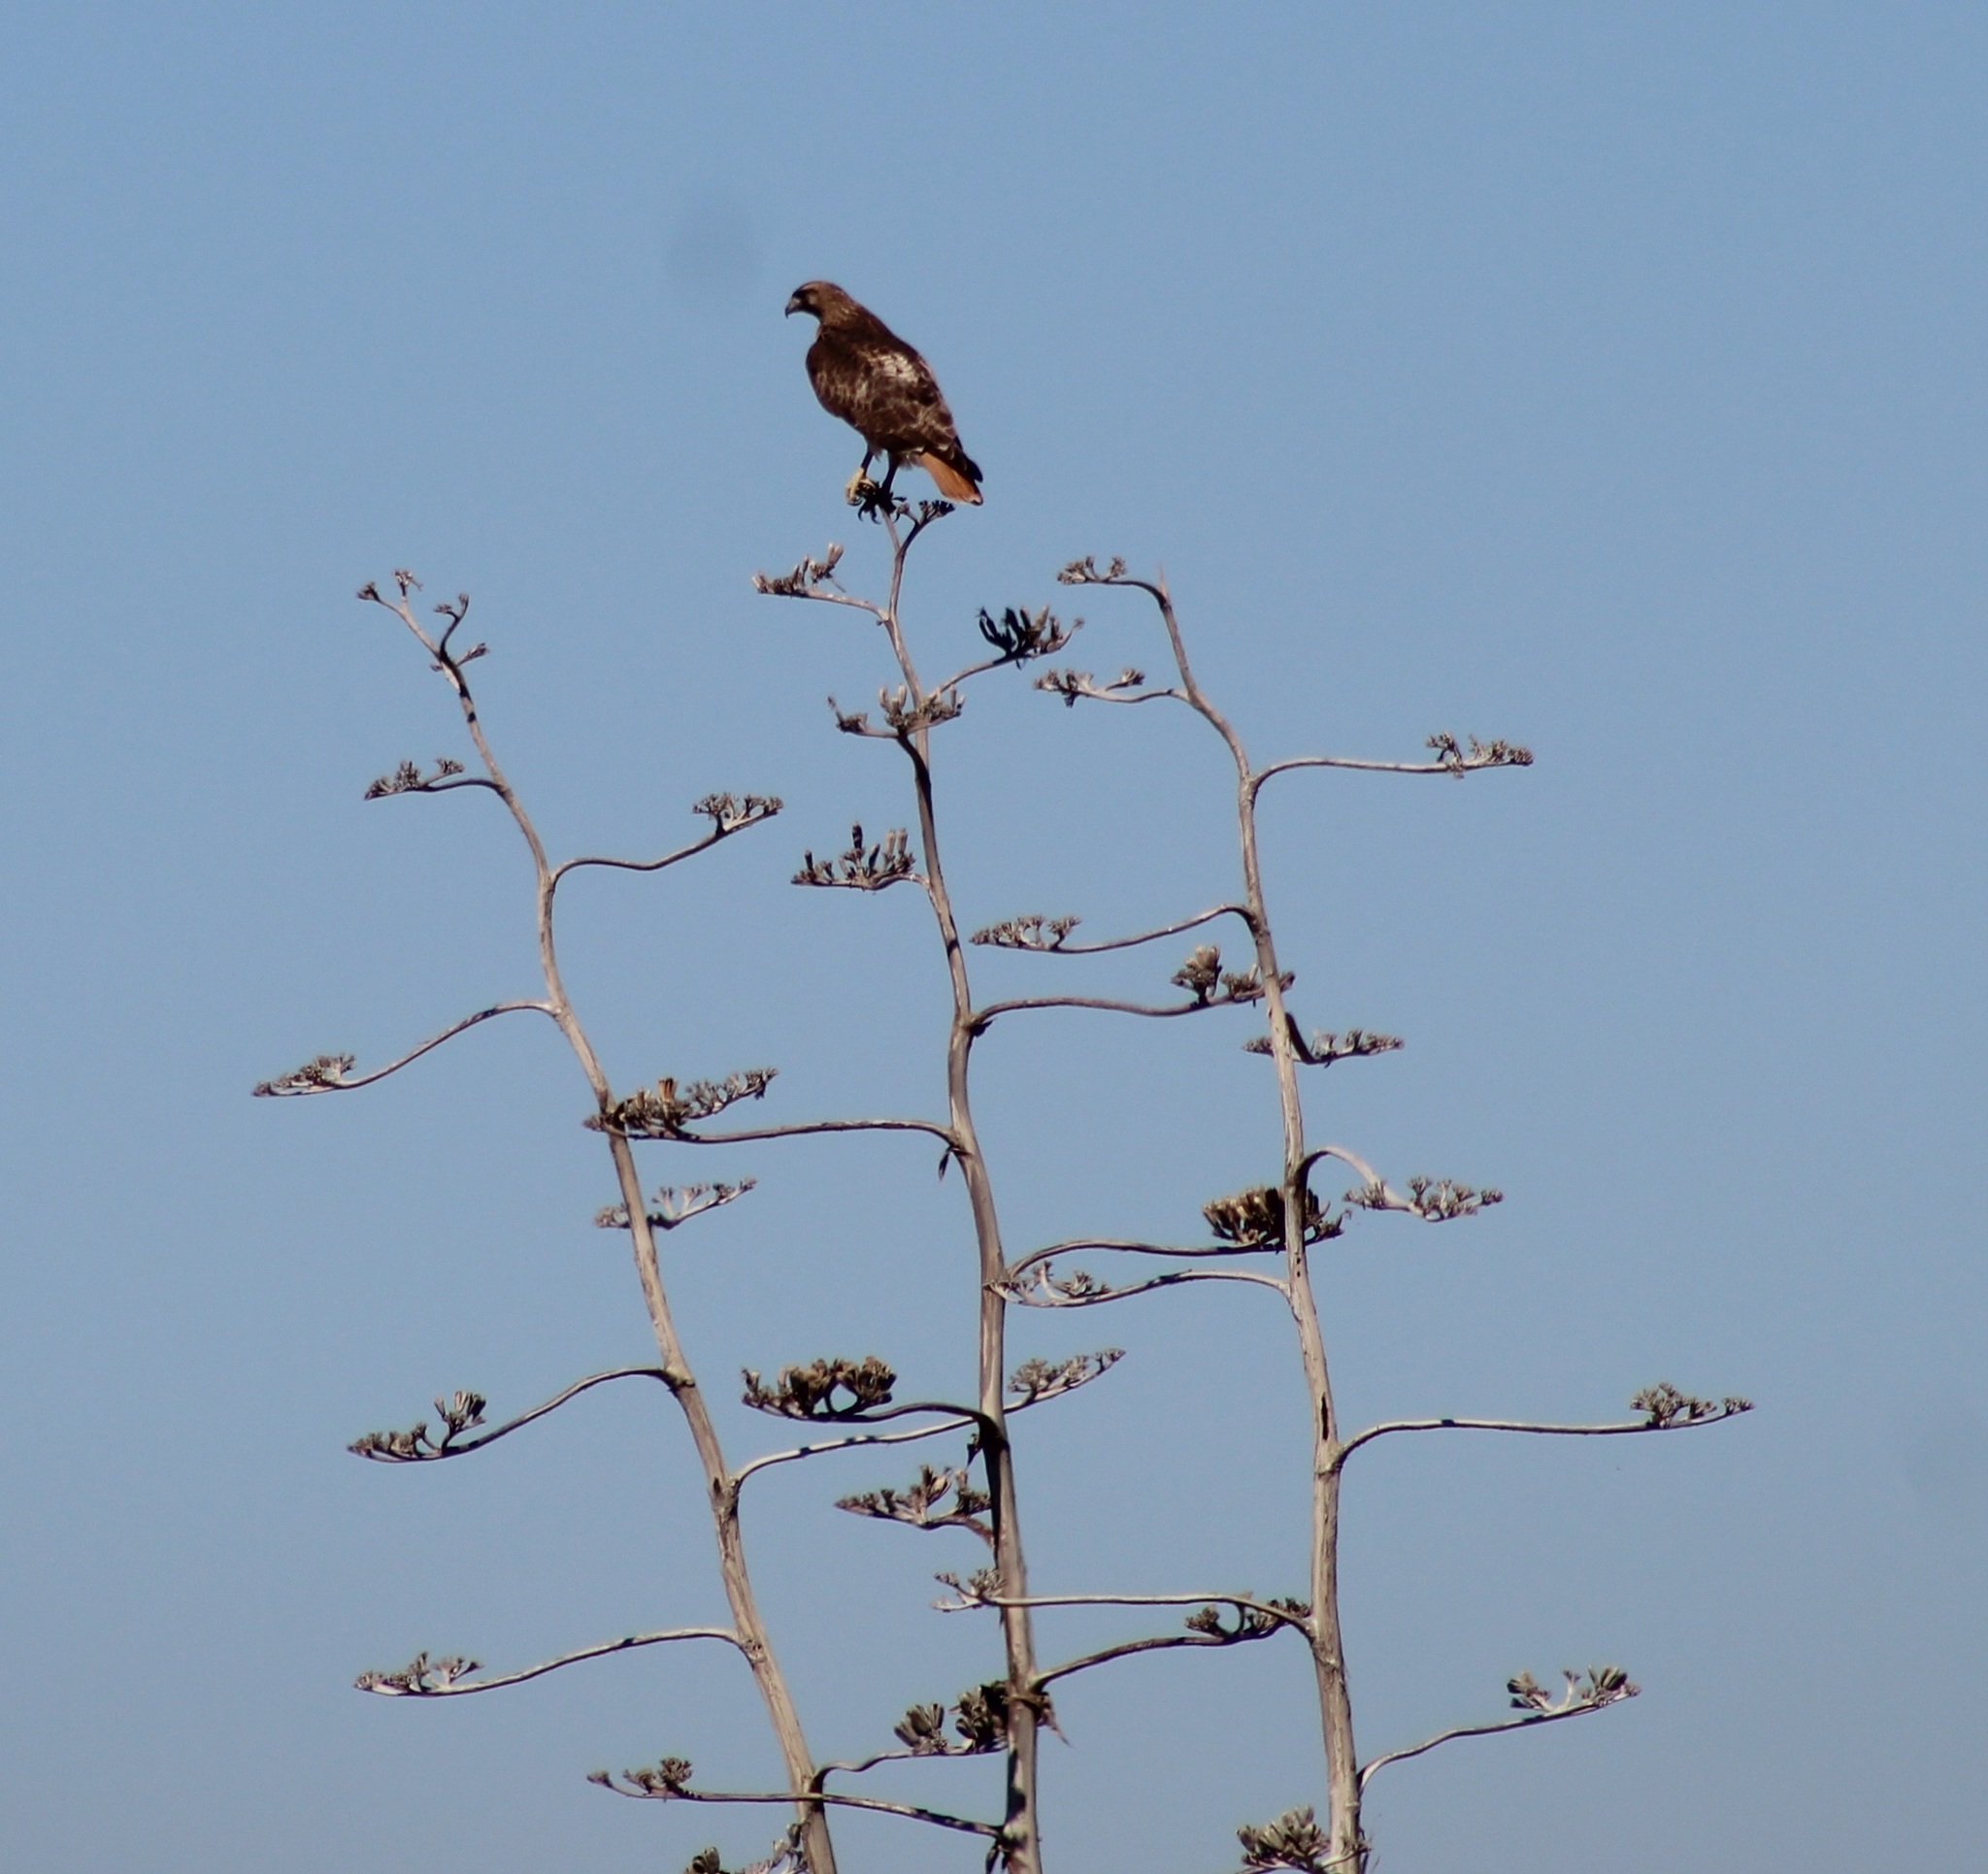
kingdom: Animalia
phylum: Chordata
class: Aves
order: Accipitriformes
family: Accipitridae
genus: Buteo
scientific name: Buteo jamaicensis
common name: Red-tailed hawk
